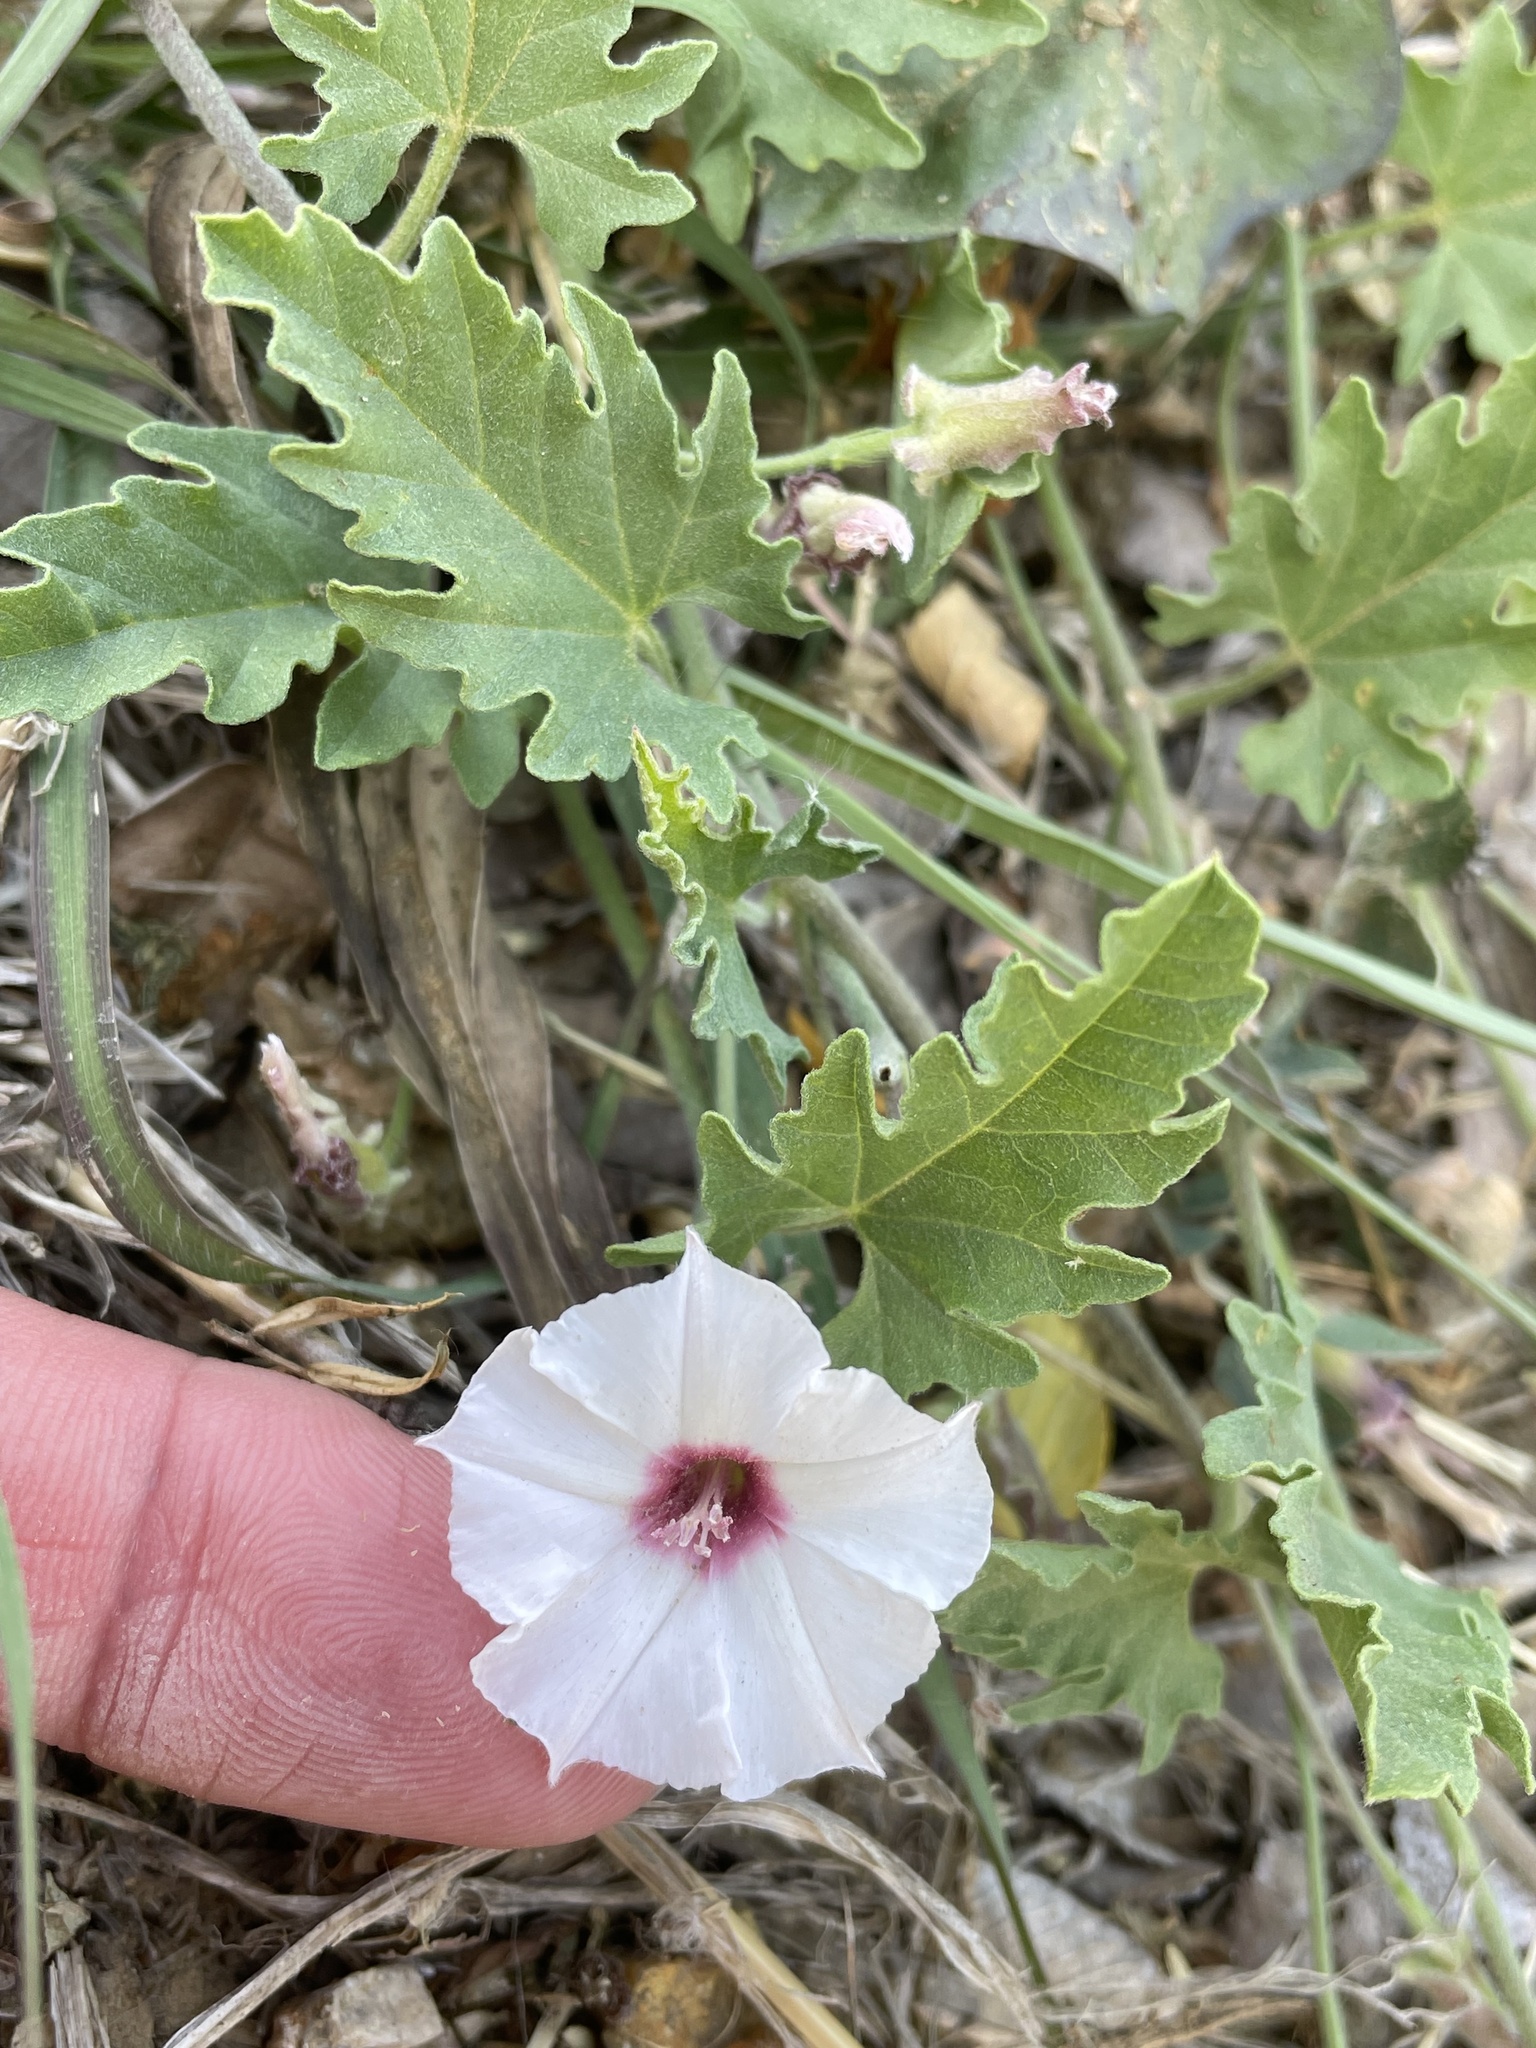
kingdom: Plantae
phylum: Tracheophyta
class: Magnoliopsida
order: Solanales
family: Convolvulaceae
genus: Convolvulus
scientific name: Convolvulus equitans
